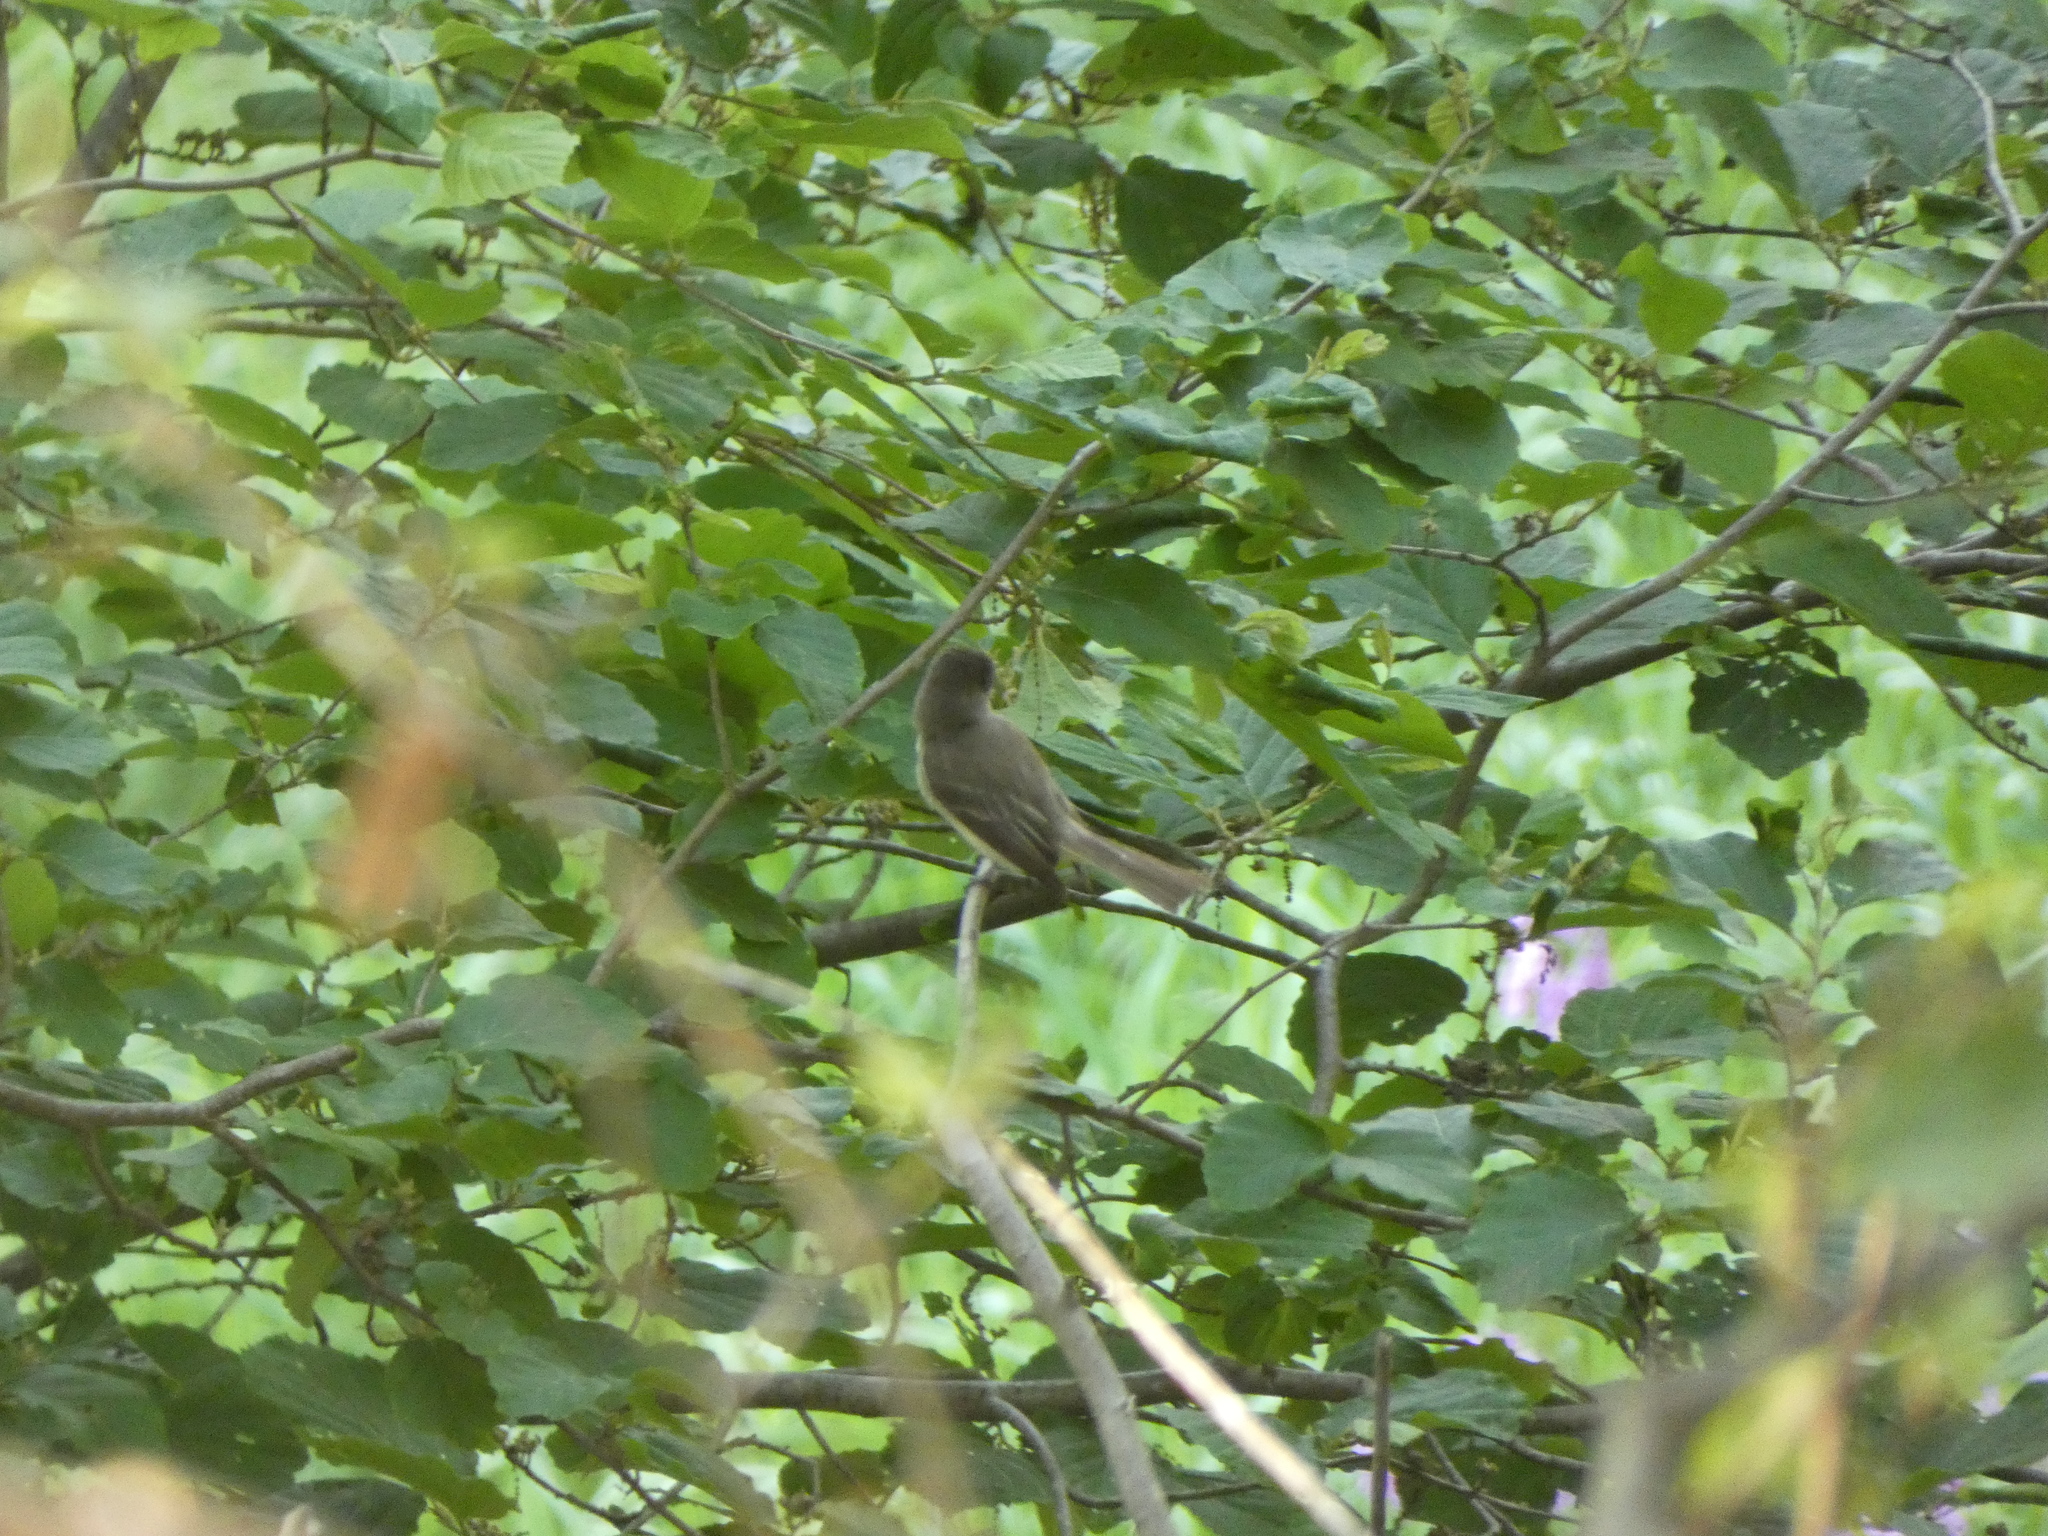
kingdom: Animalia
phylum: Chordata
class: Aves
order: Passeriformes
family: Tyrannidae
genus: Sayornis
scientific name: Sayornis phoebe
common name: Eastern phoebe
